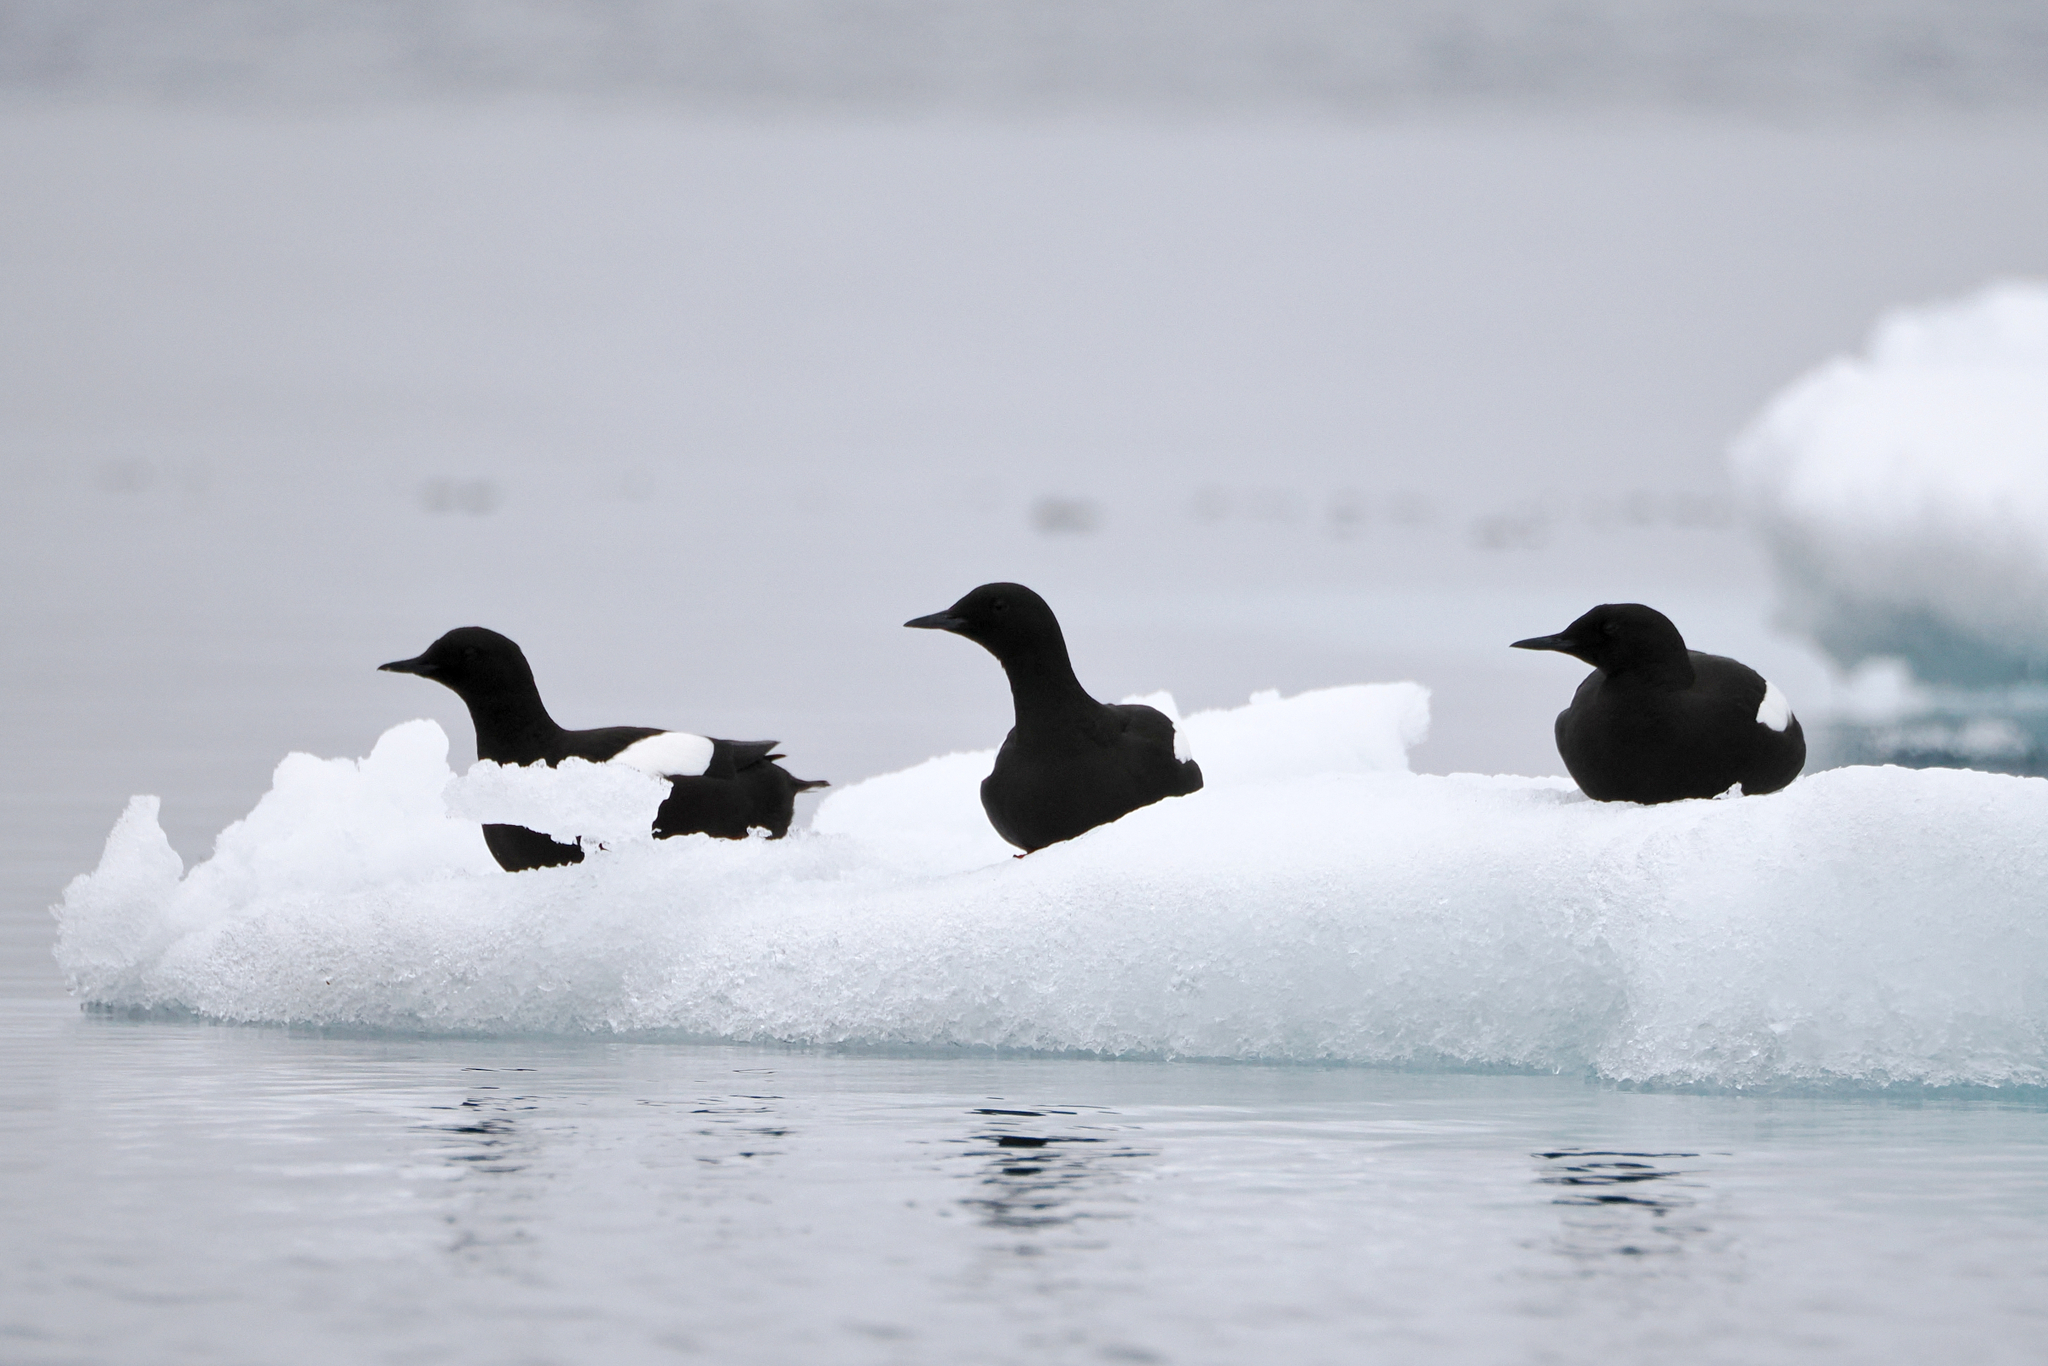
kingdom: Animalia
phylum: Chordata
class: Aves
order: Charadriiformes
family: Alcidae
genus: Cepphus
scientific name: Cepphus grylle
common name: Black guillemot
